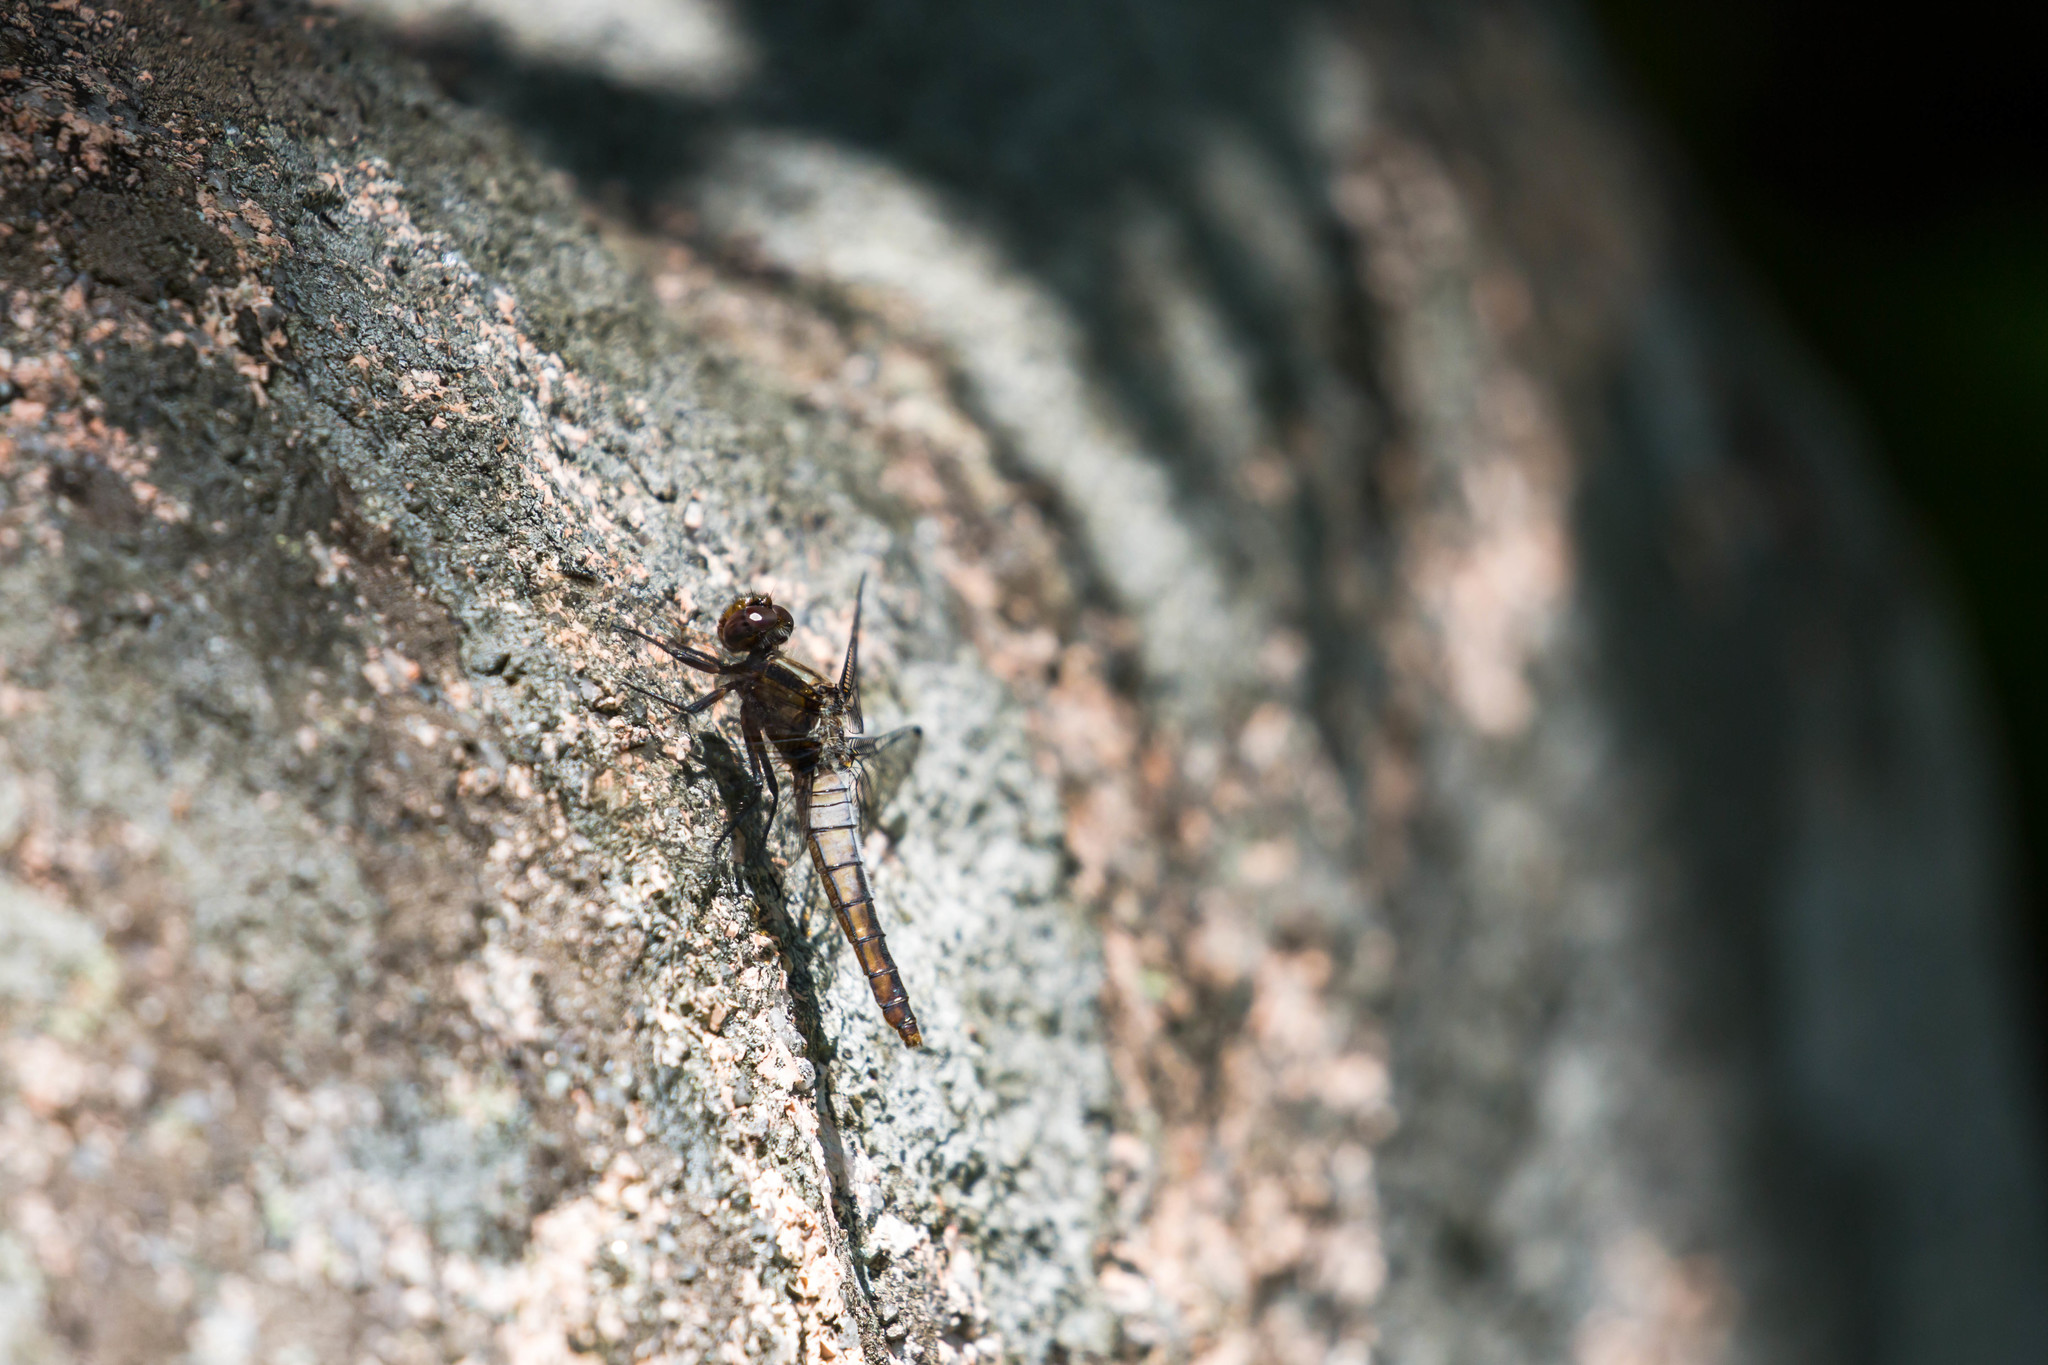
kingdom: Animalia
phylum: Arthropoda
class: Insecta
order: Odonata
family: Libellulidae
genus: Ladona
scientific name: Ladona julia
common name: Chalk-fronted corporal
